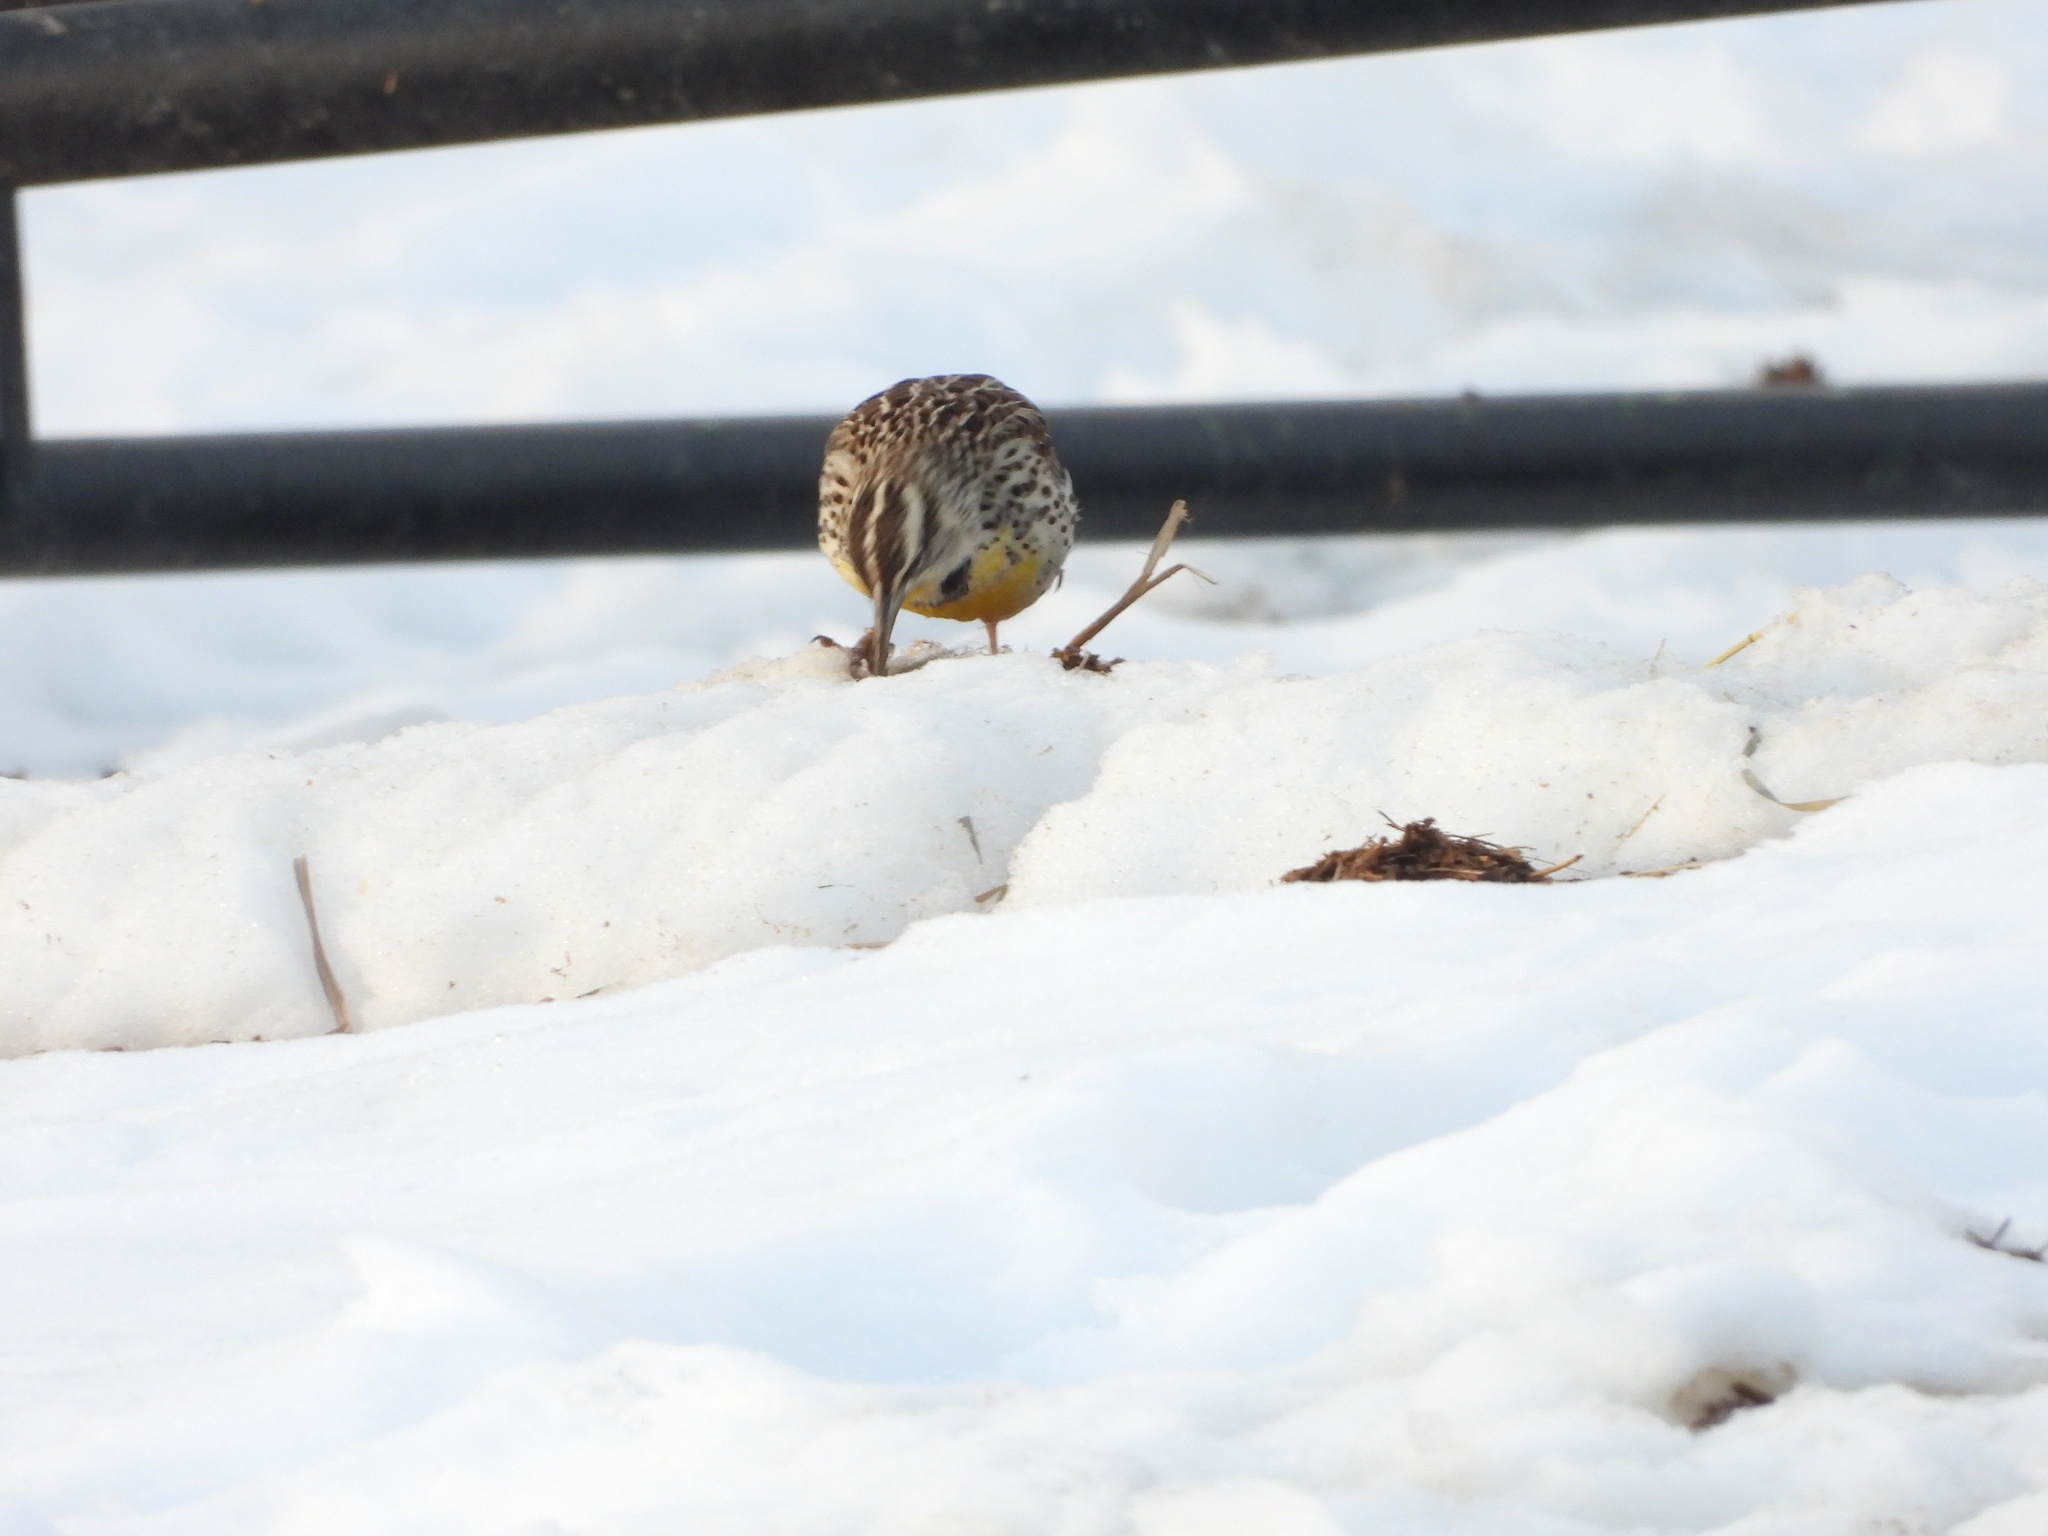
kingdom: Animalia
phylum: Chordata
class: Aves
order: Passeriformes
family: Icteridae
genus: Sturnella
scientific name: Sturnella neglecta
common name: Western meadowlark
